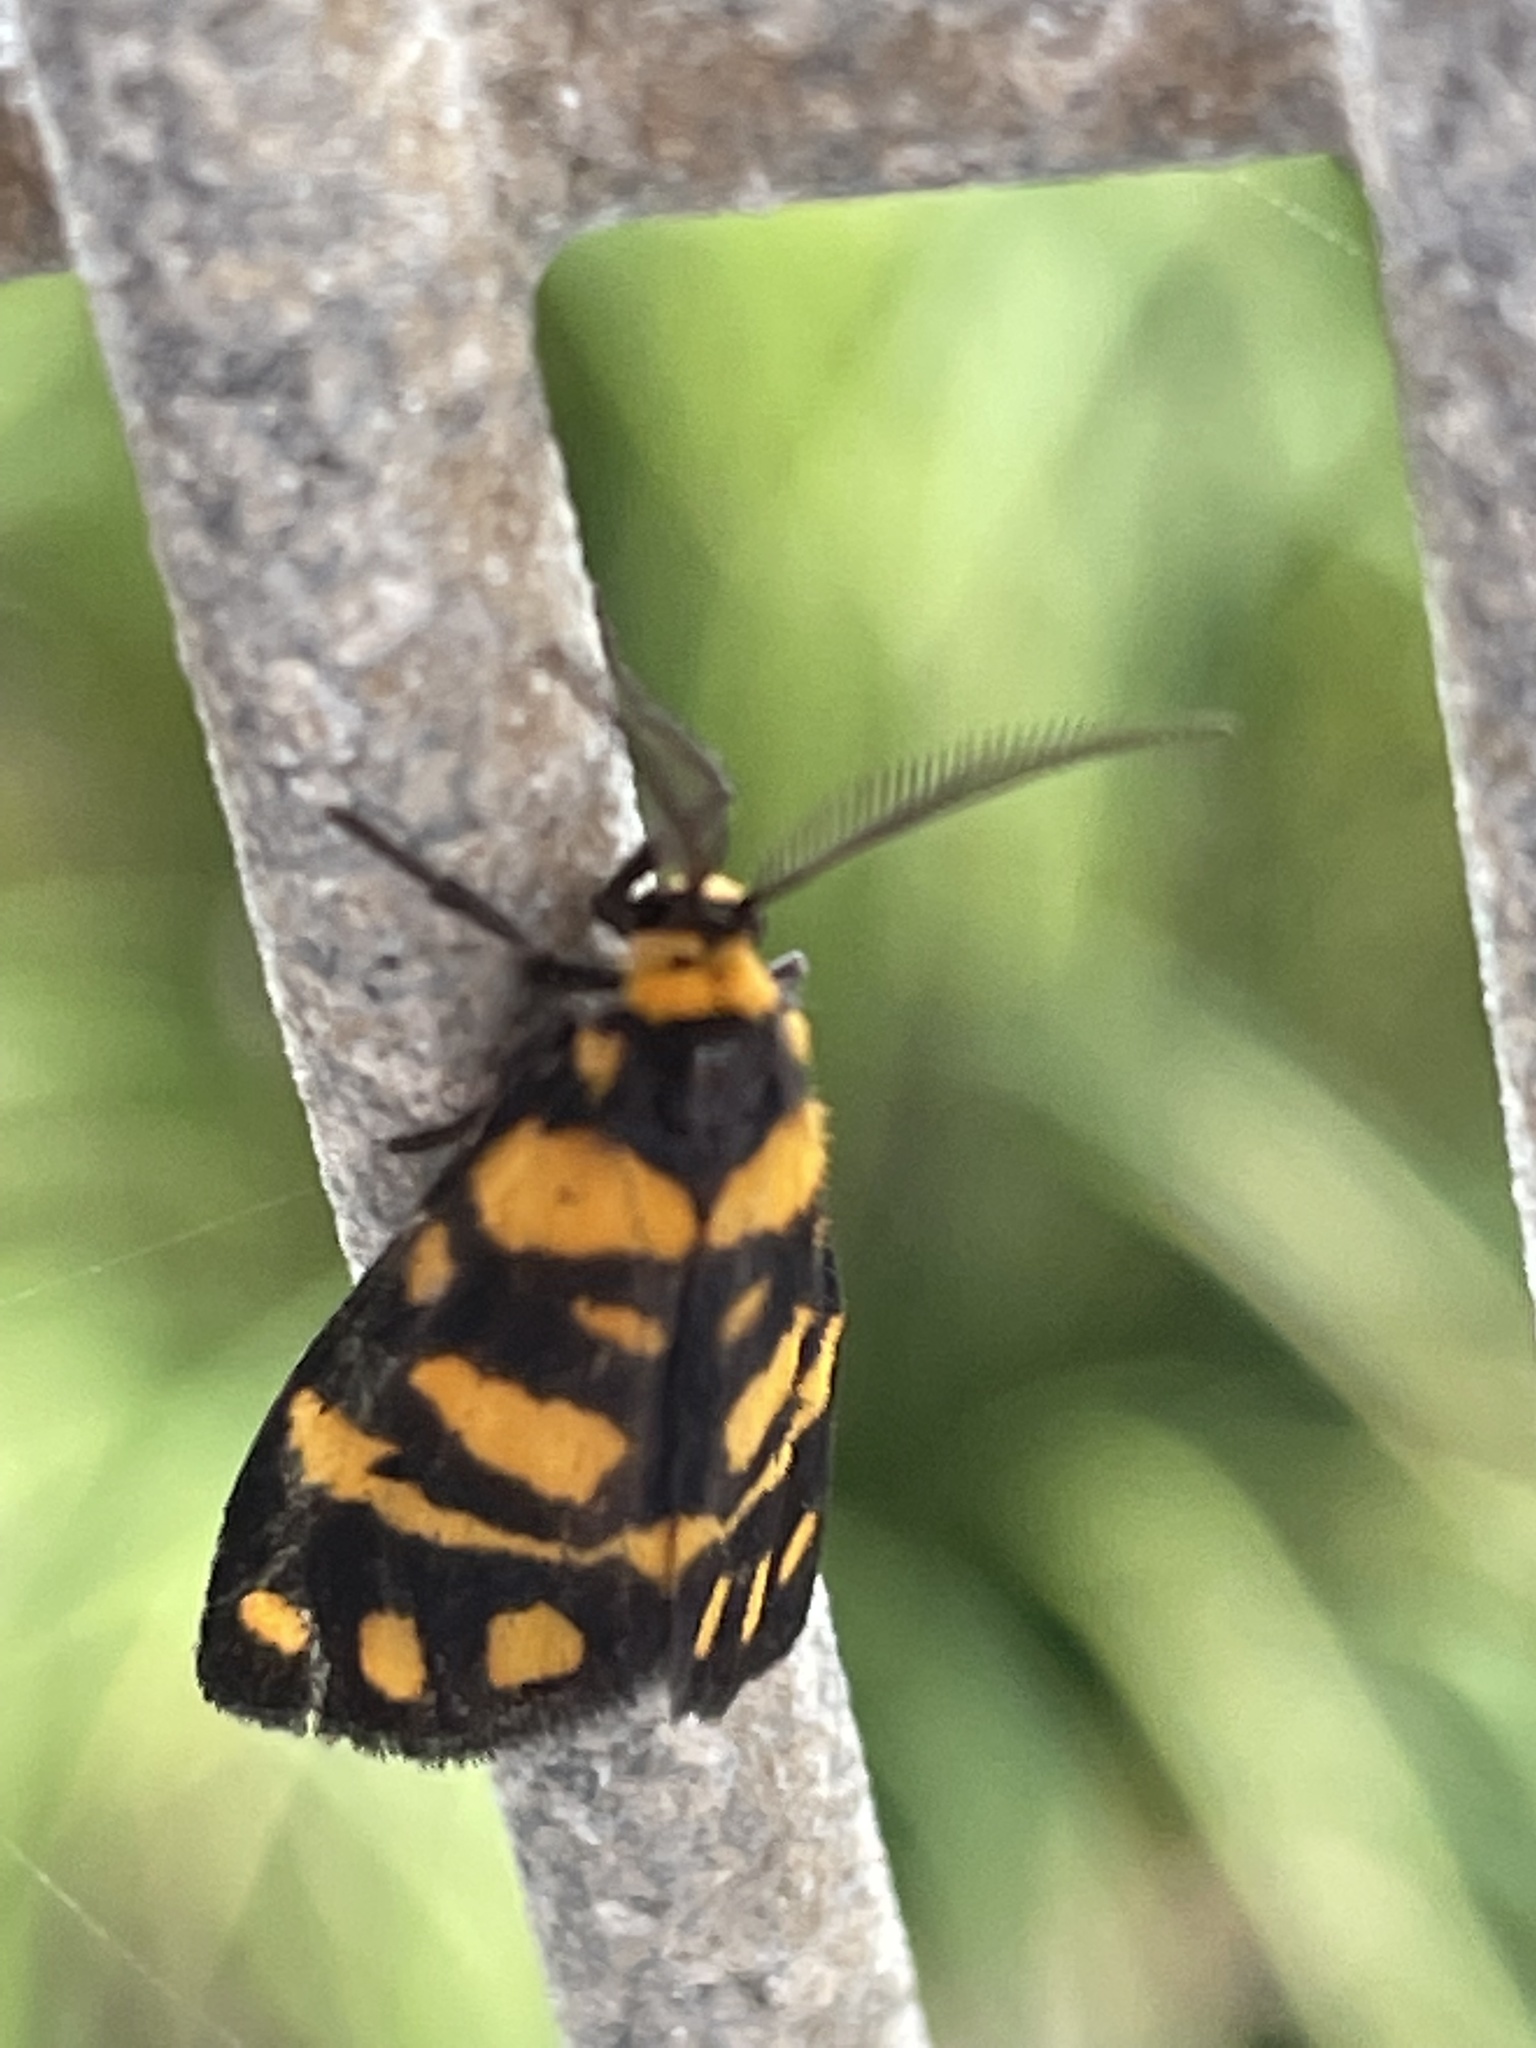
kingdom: Animalia
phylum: Arthropoda
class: Insecta
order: Lepidoptera
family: Erebidae
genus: Asura
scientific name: Asura lydia
